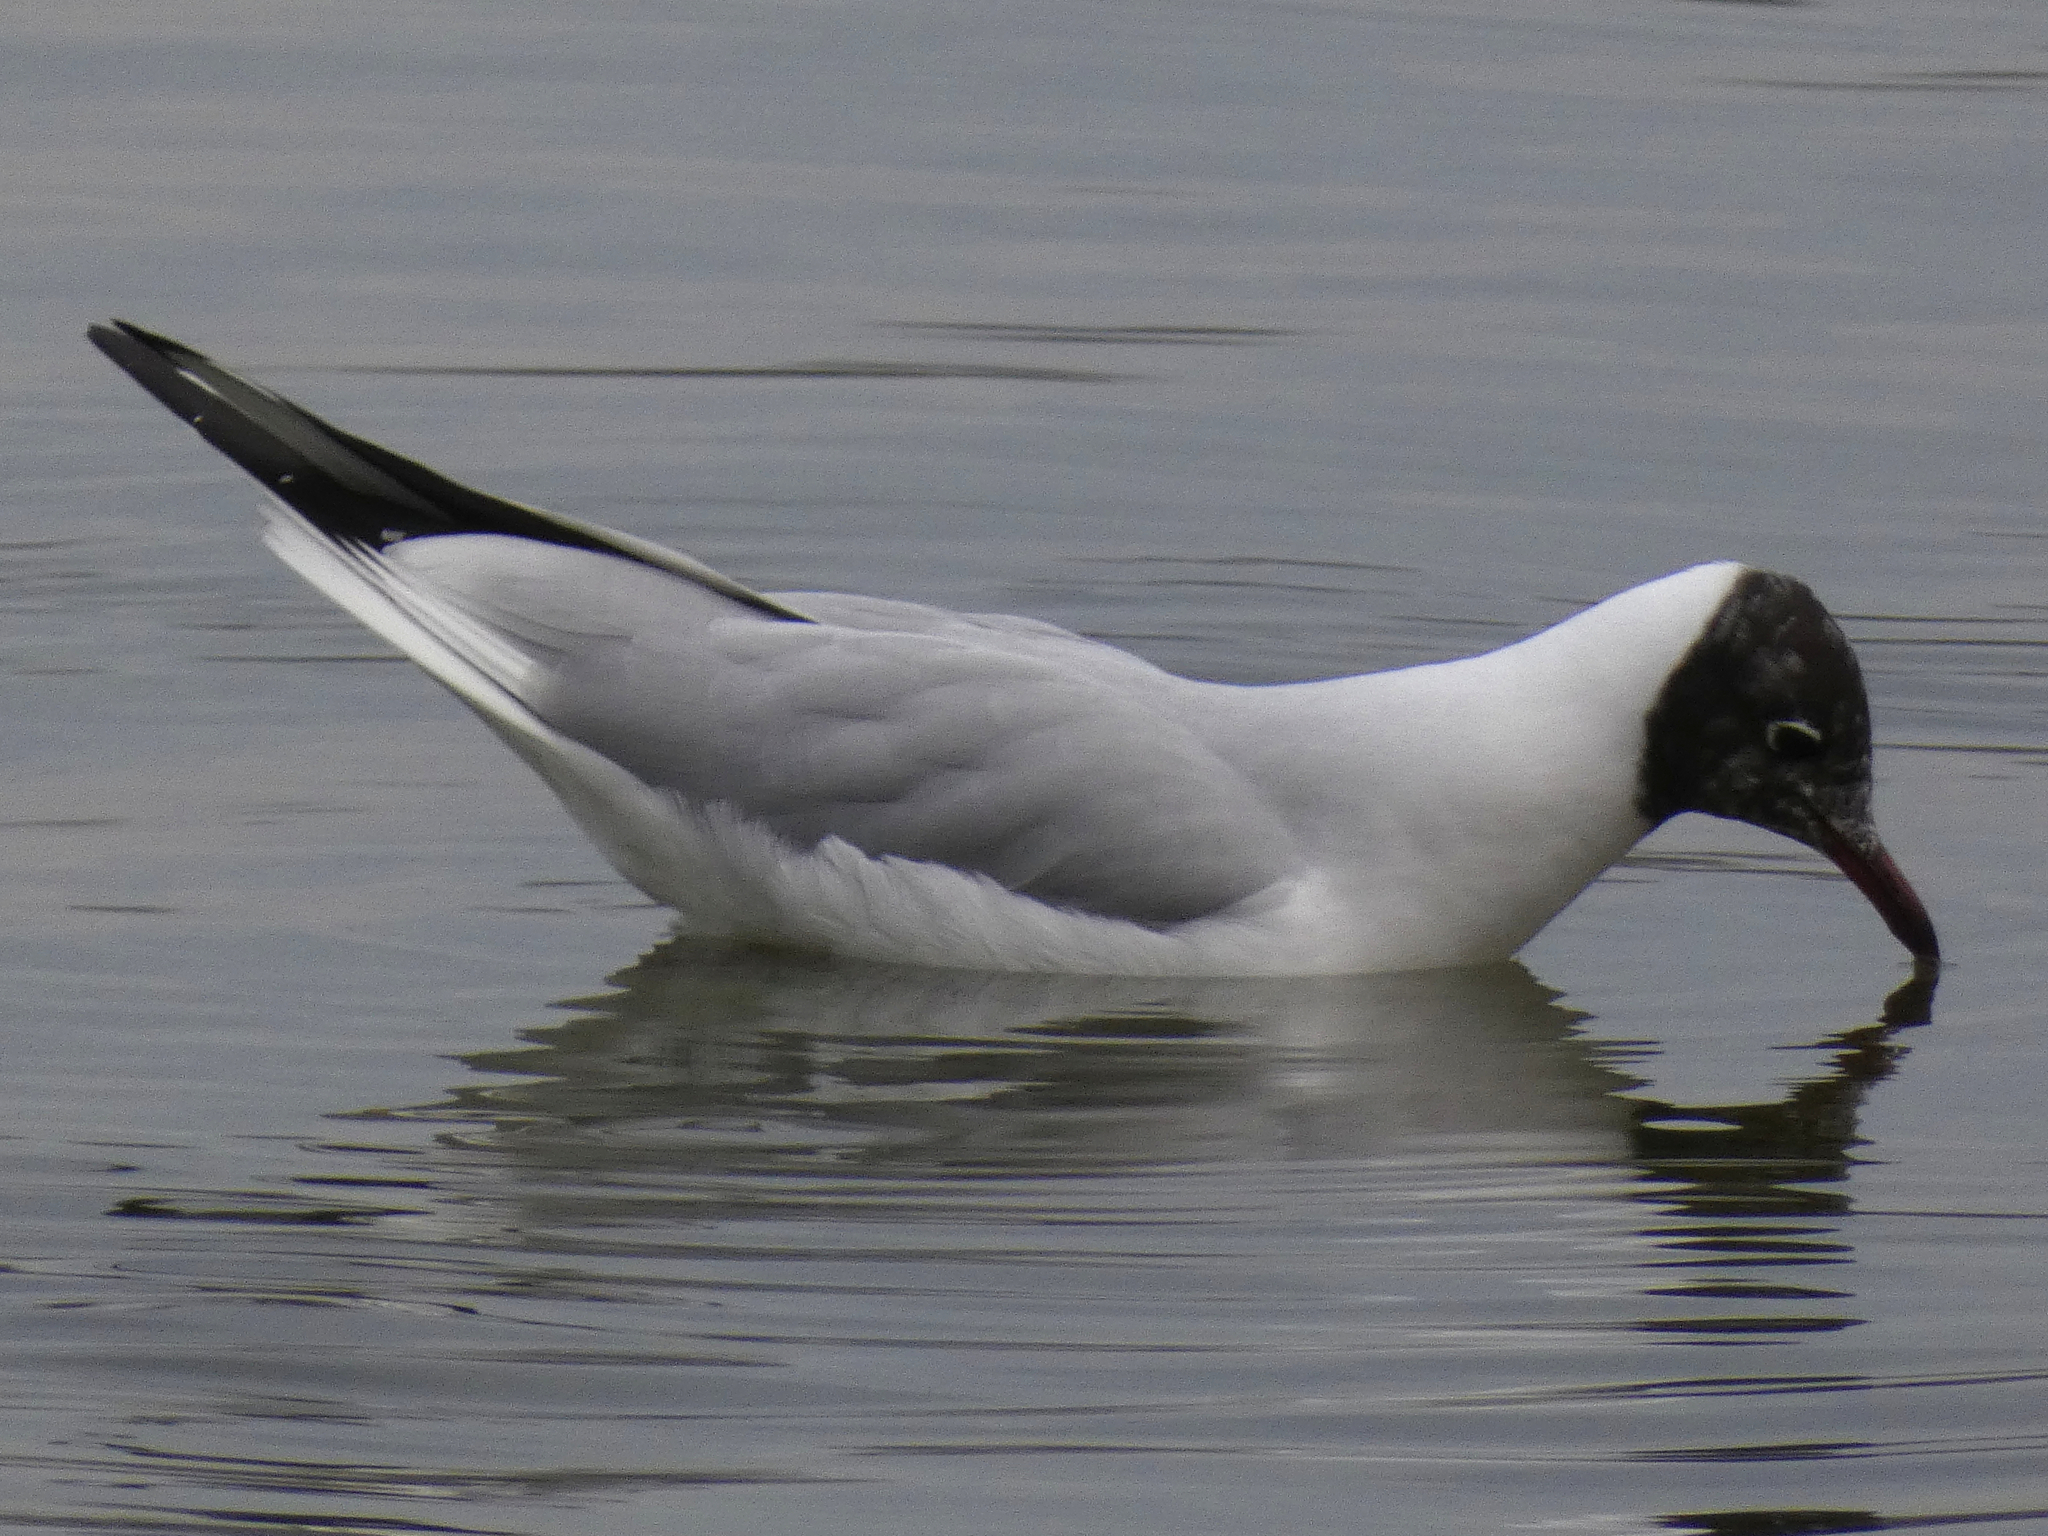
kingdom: Animalia
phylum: Chordata
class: Aves
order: Charadriiformes
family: Laridae
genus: Chroicocephalus
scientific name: Chroicocephalus ridibundus
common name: Black-headed gull
